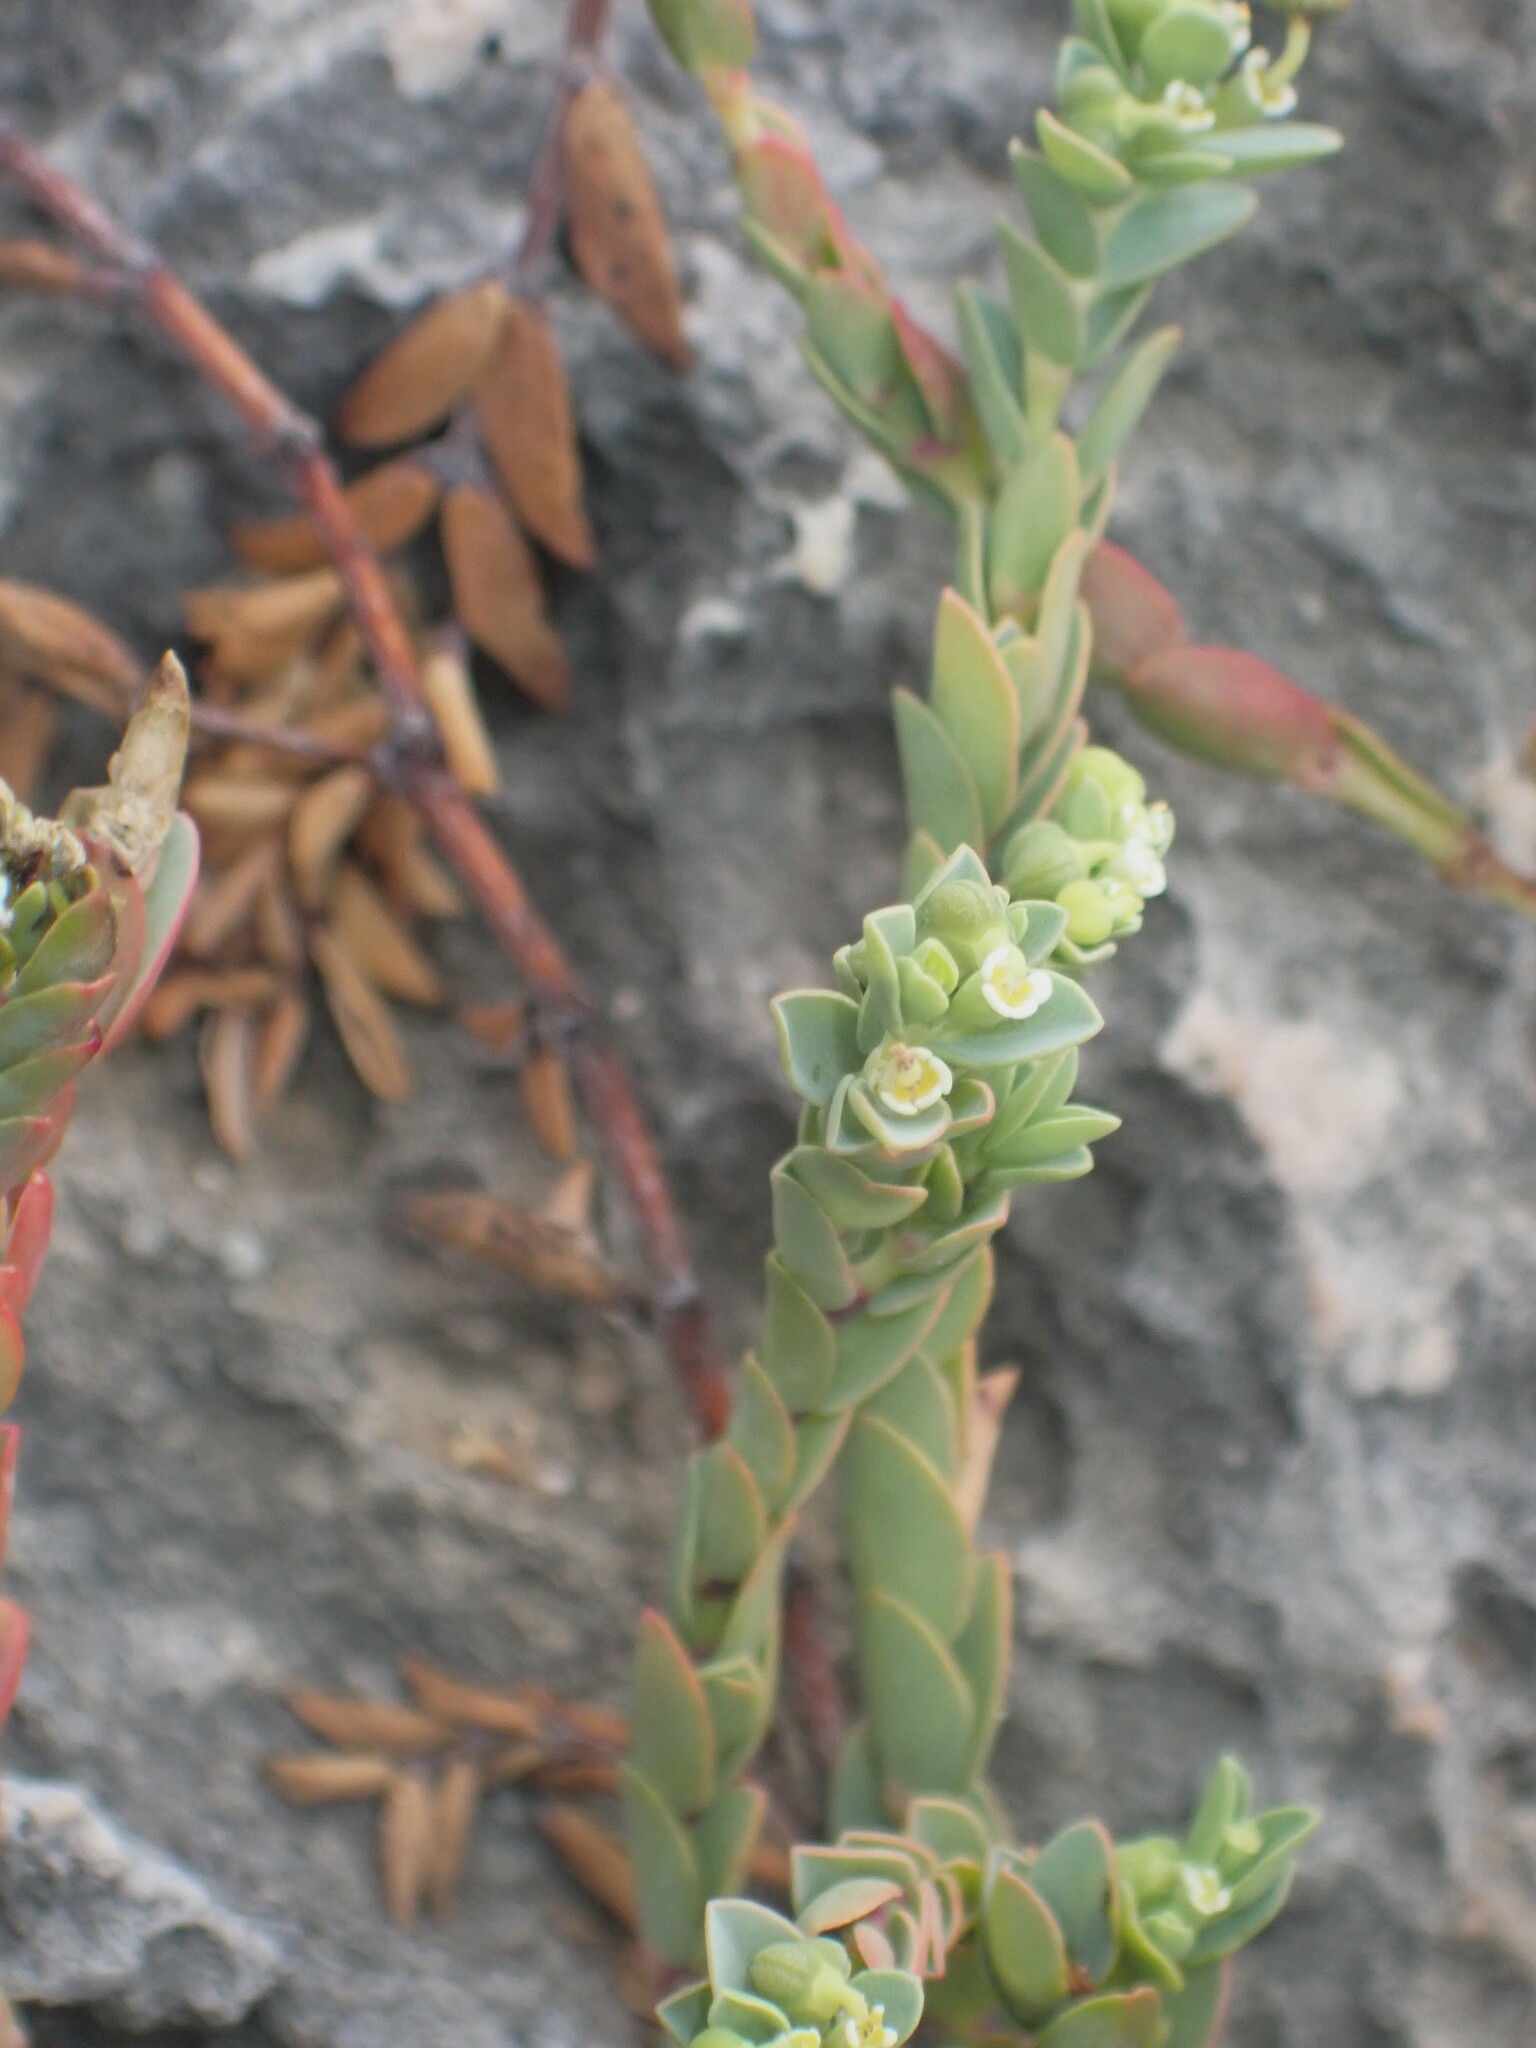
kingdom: Plantae
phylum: Tracheophyta
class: Magnoliopsida
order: Malpighiales
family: Euphorbiaceae
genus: Euphorbia
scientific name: Euphorbia mesembryanthemifolia
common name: Coastal beach sandmat
